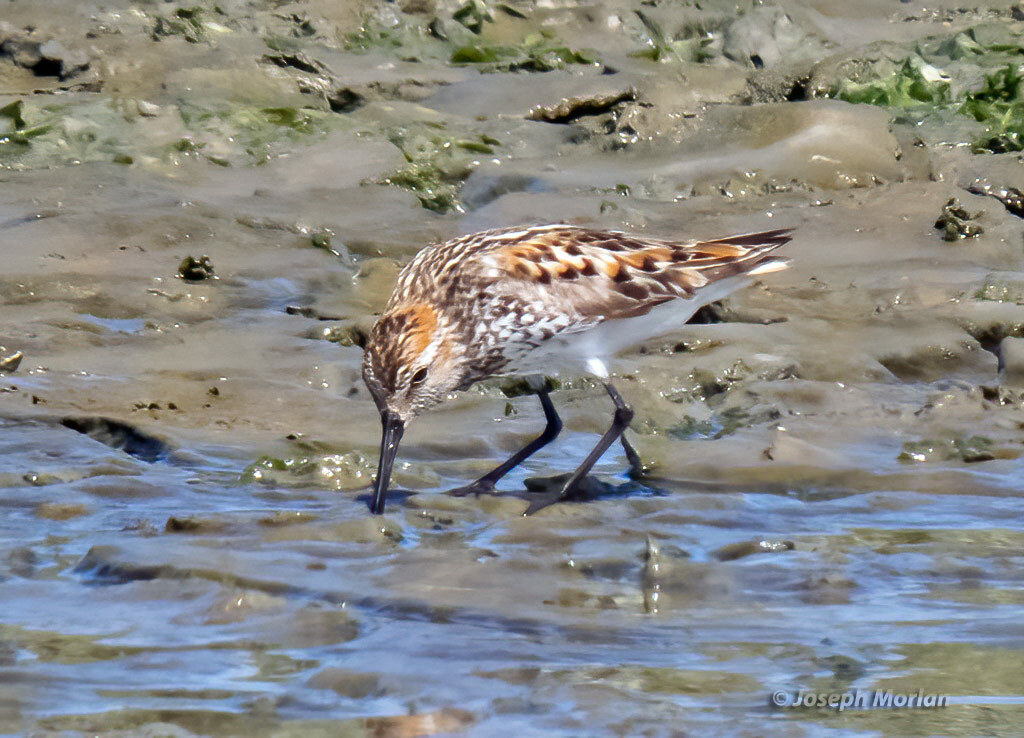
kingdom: Animalia
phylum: Chordata
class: Aves
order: Charadriiformes
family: Scolopacidae
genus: Calidris
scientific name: Calidris mauri
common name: Western sandpiper
